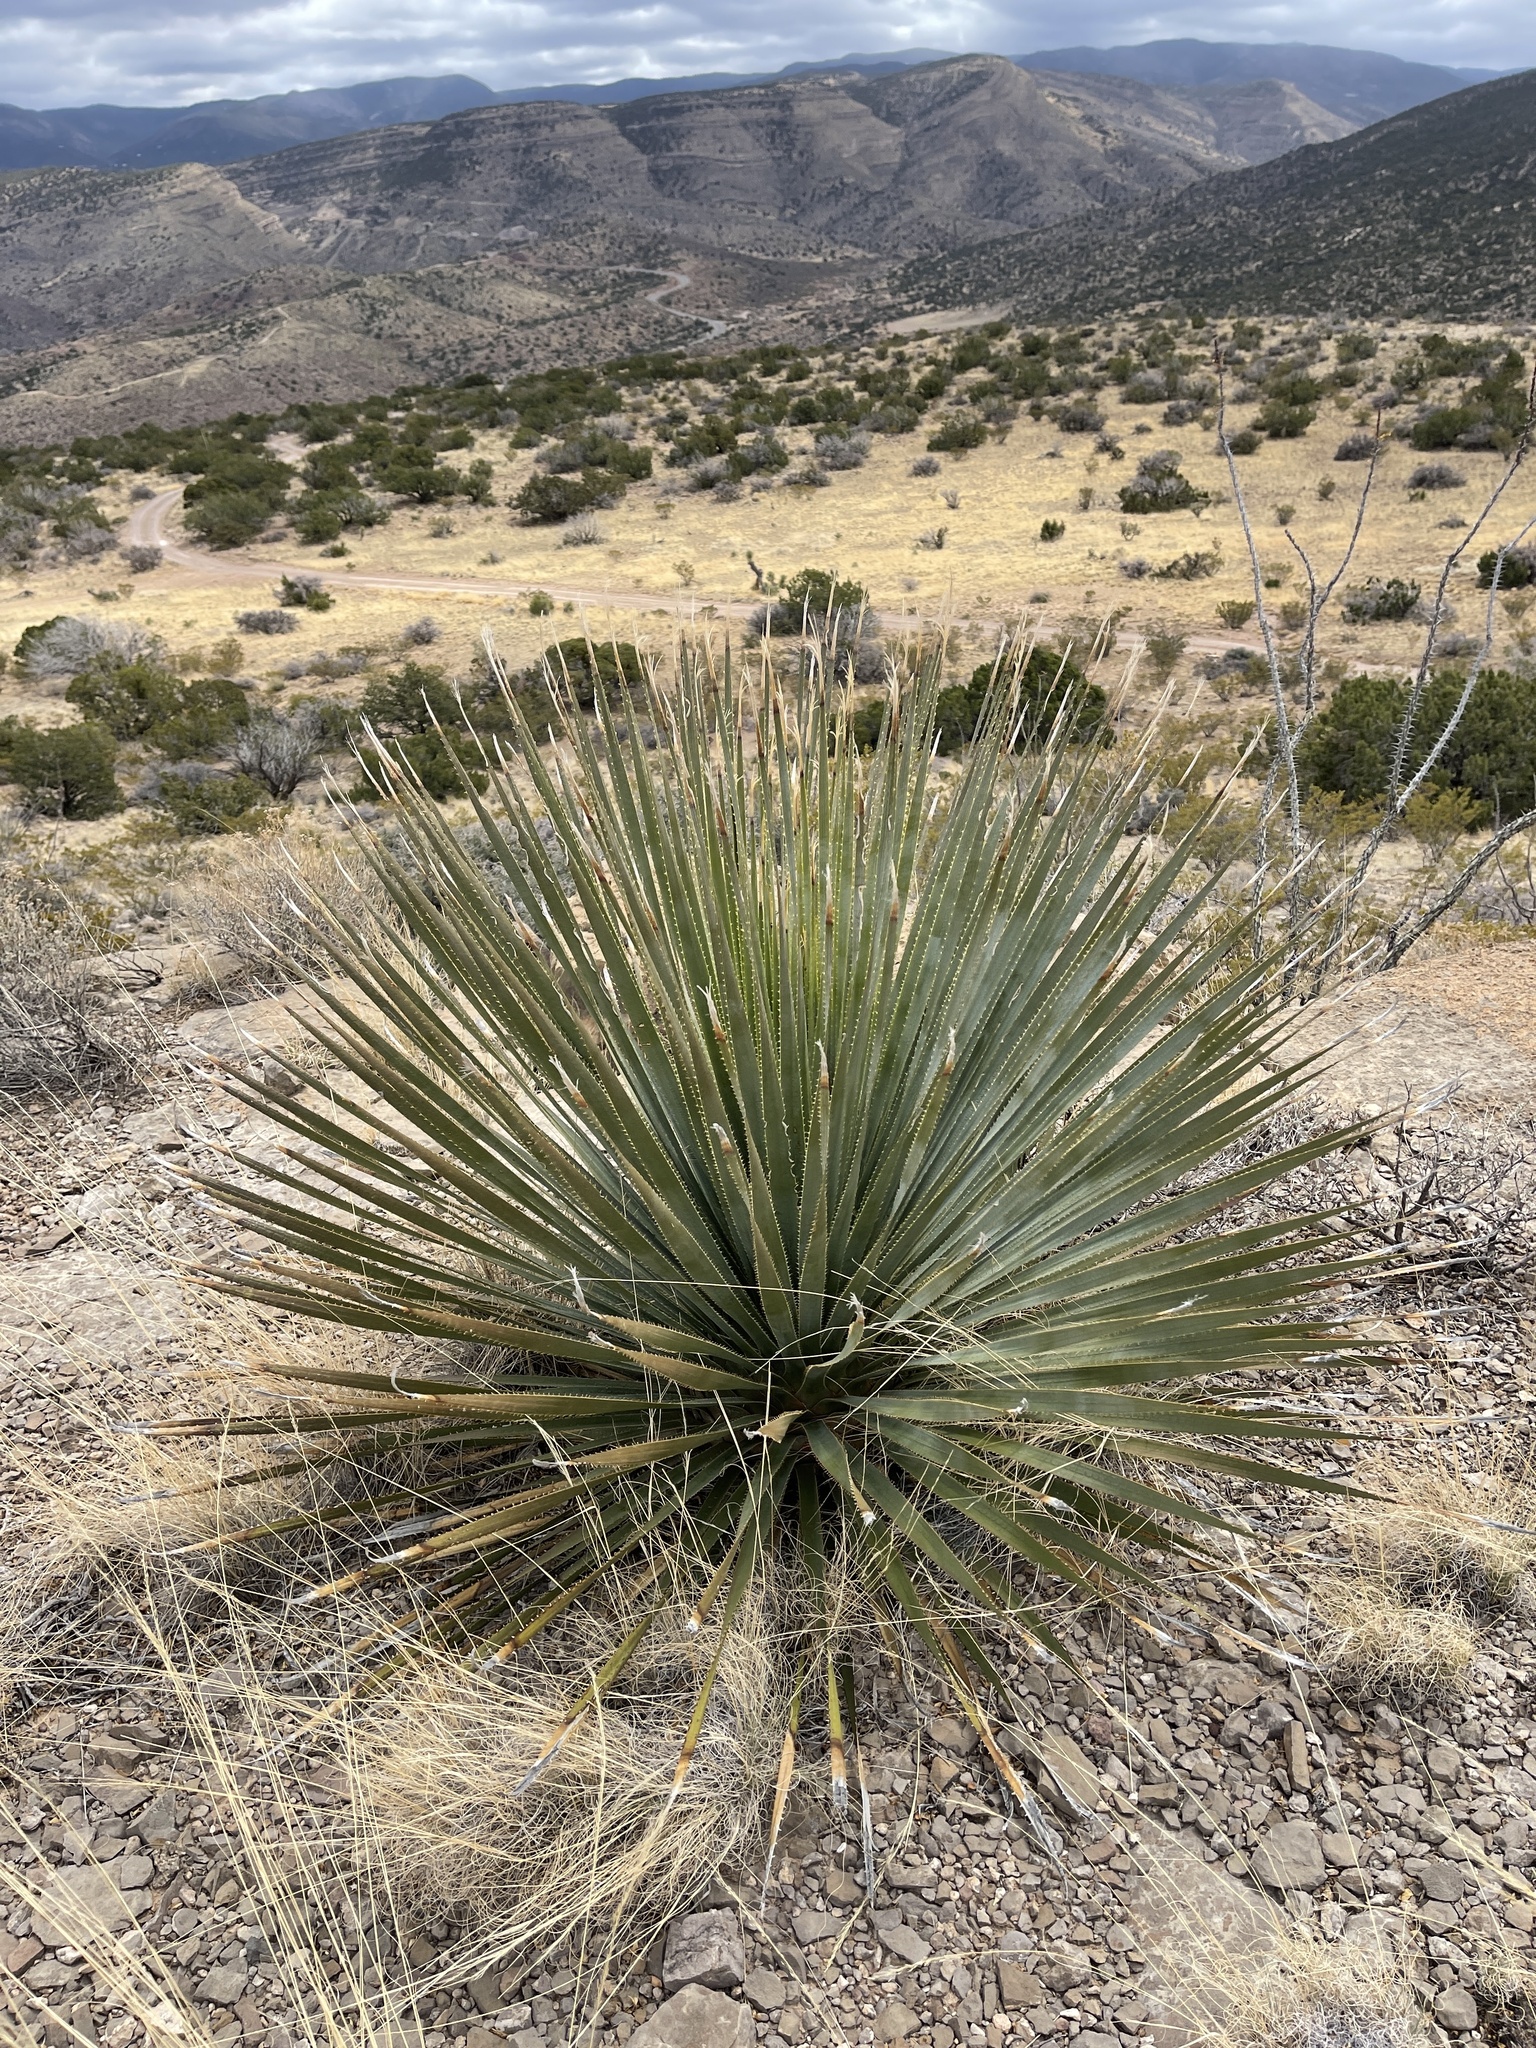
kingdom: Plantae
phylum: Tracheophyta
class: Liliopsida
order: Asparagales
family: Asparagaceae
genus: Dasylirion
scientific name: Dasylirion wheeleri
